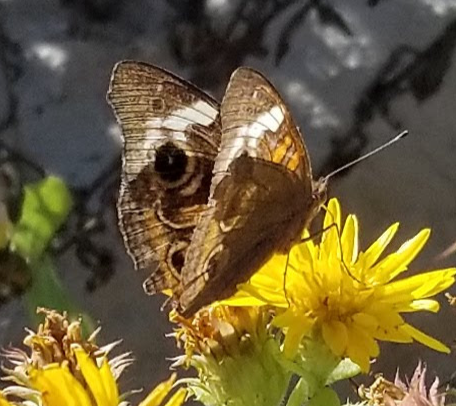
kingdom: Animalia
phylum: Arthropoda
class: Insecta
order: Lepidoptera
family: Nymphalidae
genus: Junonia
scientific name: Junonia coenia
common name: Common buckeye
